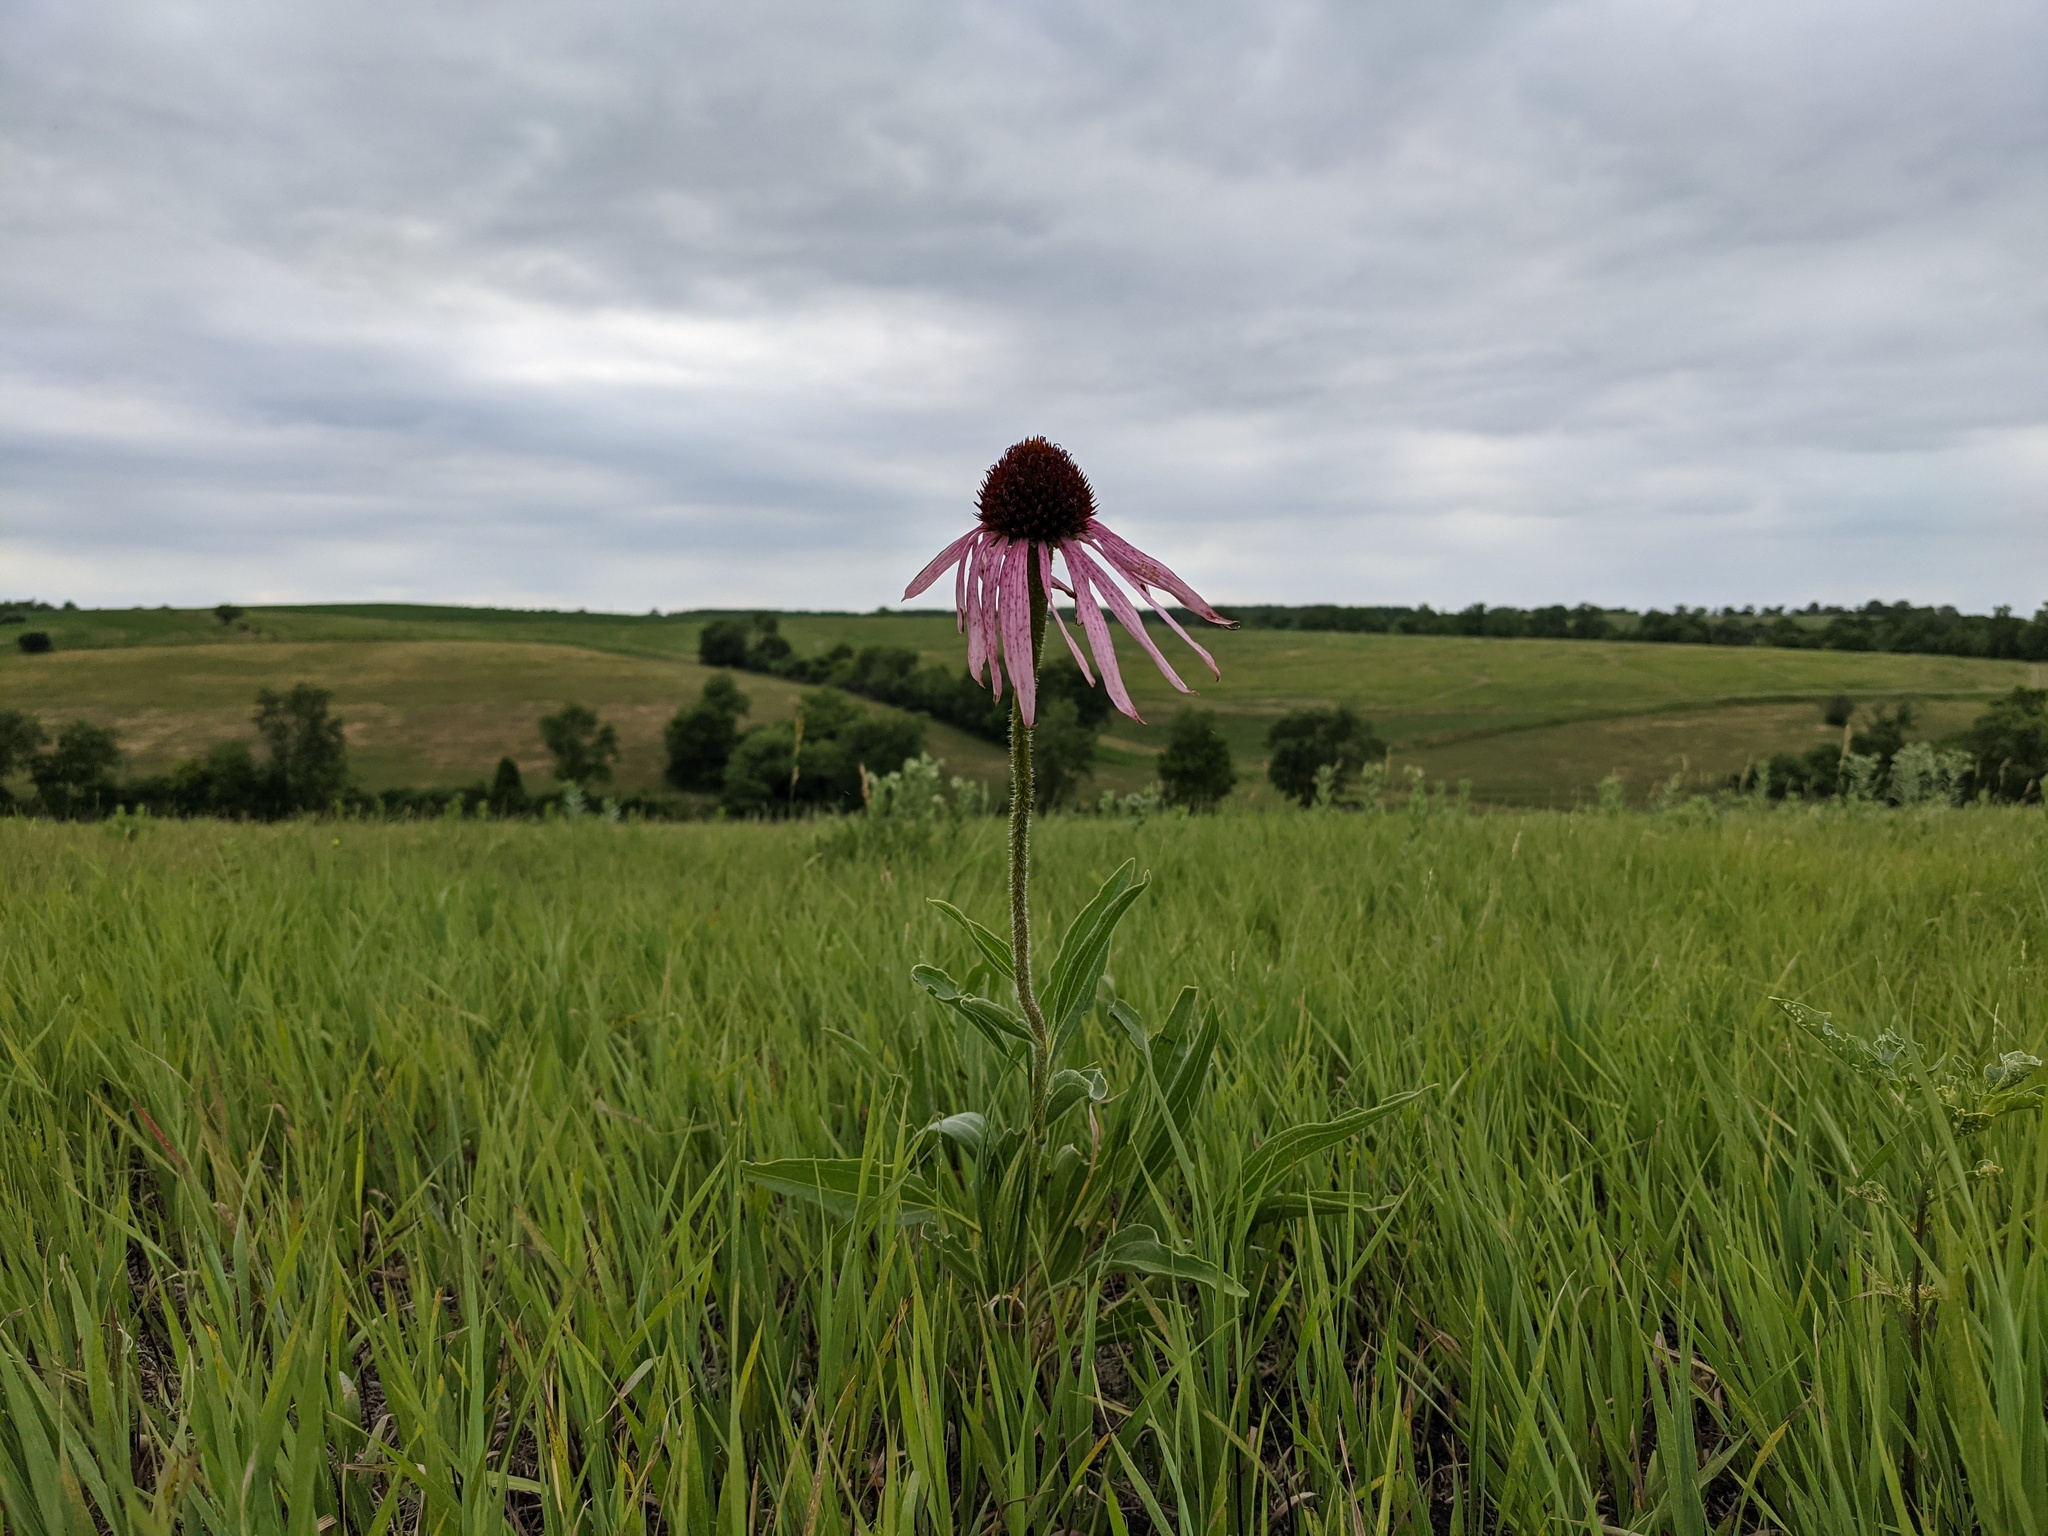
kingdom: Plantae
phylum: Tracheophyta
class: Magnoliopsida
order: Asterales
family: Asteraceae
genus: Echinacea
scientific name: Echinacea pallida
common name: Pale echinacea
